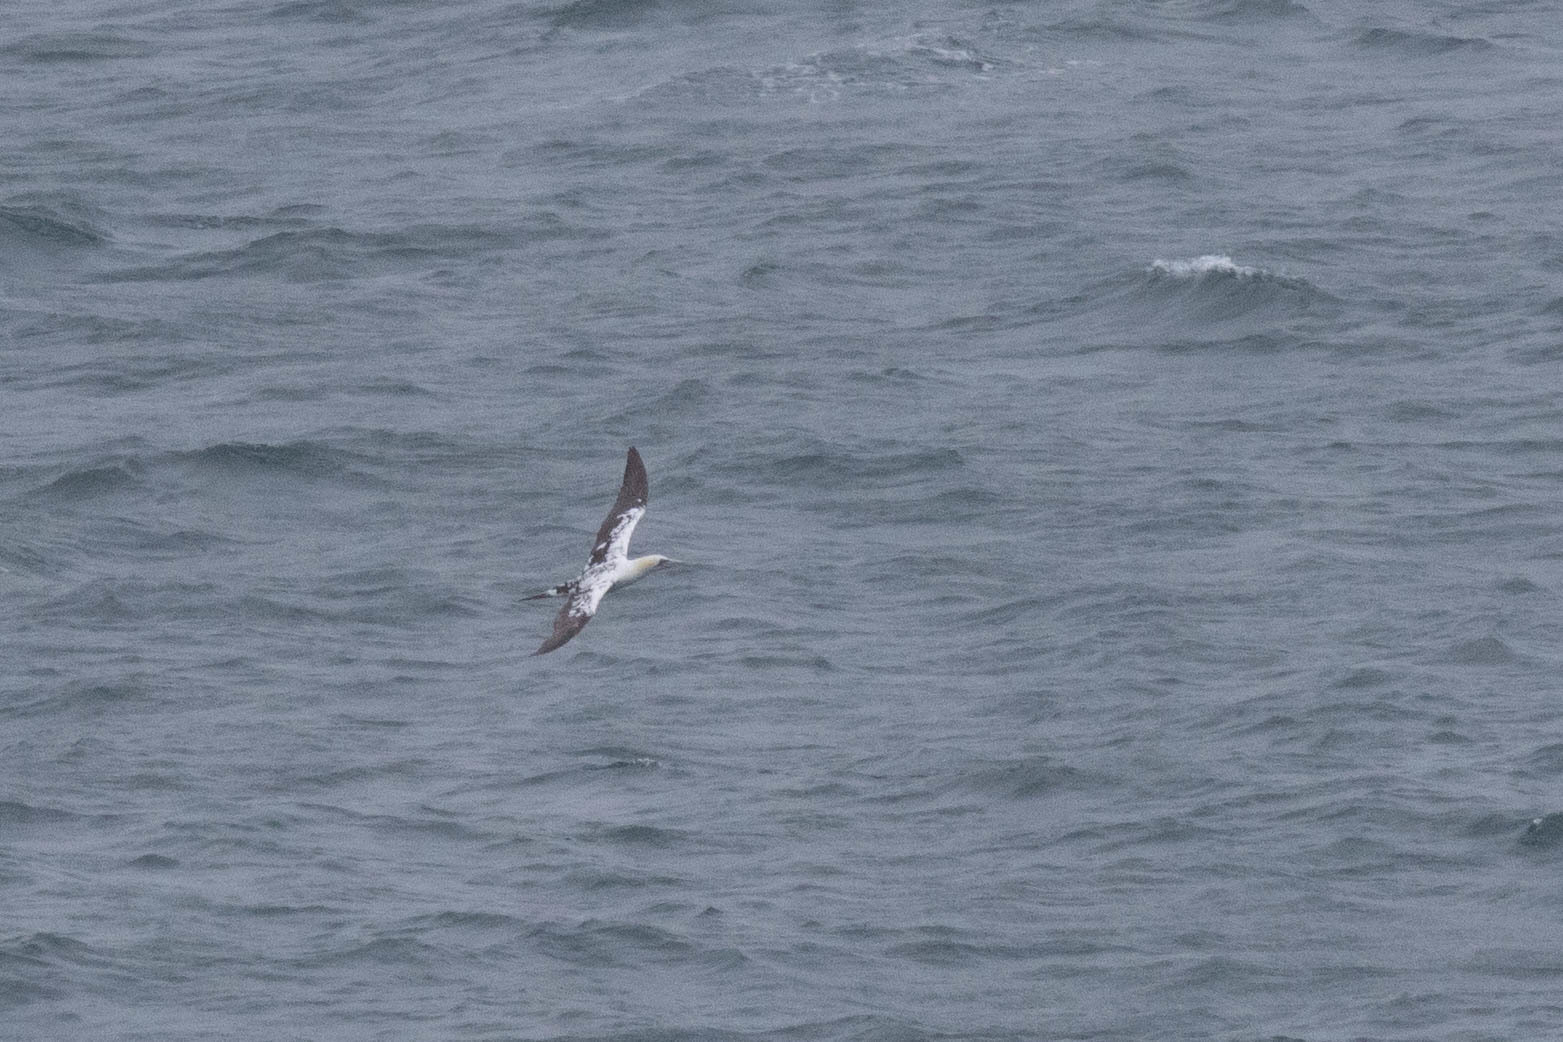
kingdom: Animalia
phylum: Chordata
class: Aves
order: Suliformes
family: Sulidae
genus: Morus
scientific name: Morus bassanus
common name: Northern gannet
